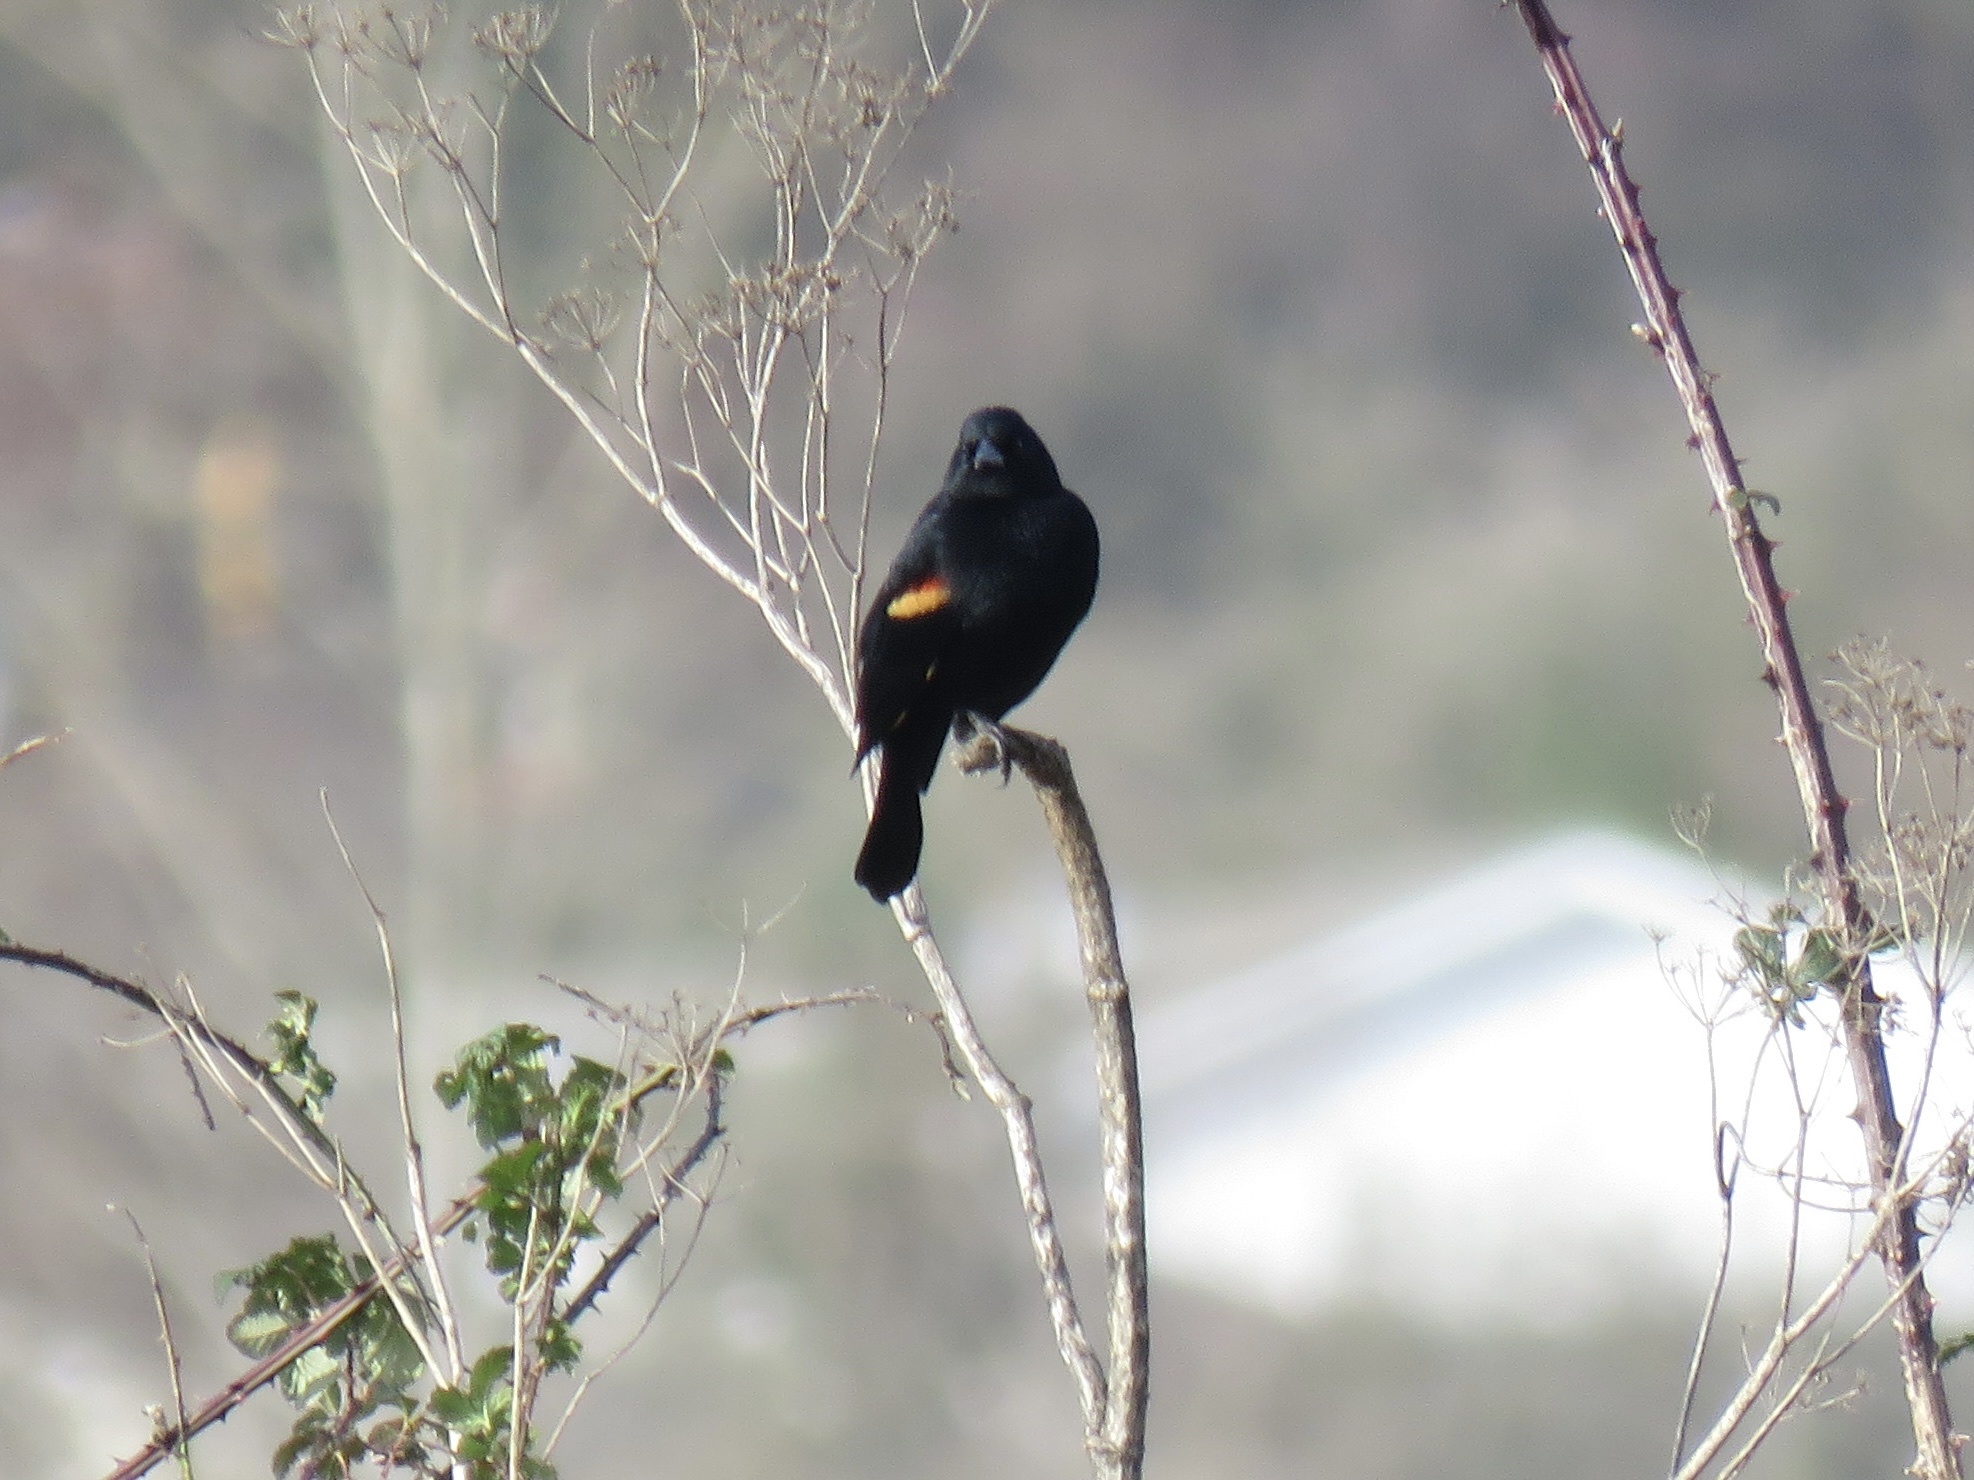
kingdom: Animalia
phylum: Chordata
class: Aves
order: Passeriformes
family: Icteridae
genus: Agelaius
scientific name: Agelaius phoeniceus
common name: Red-winged blackbird
